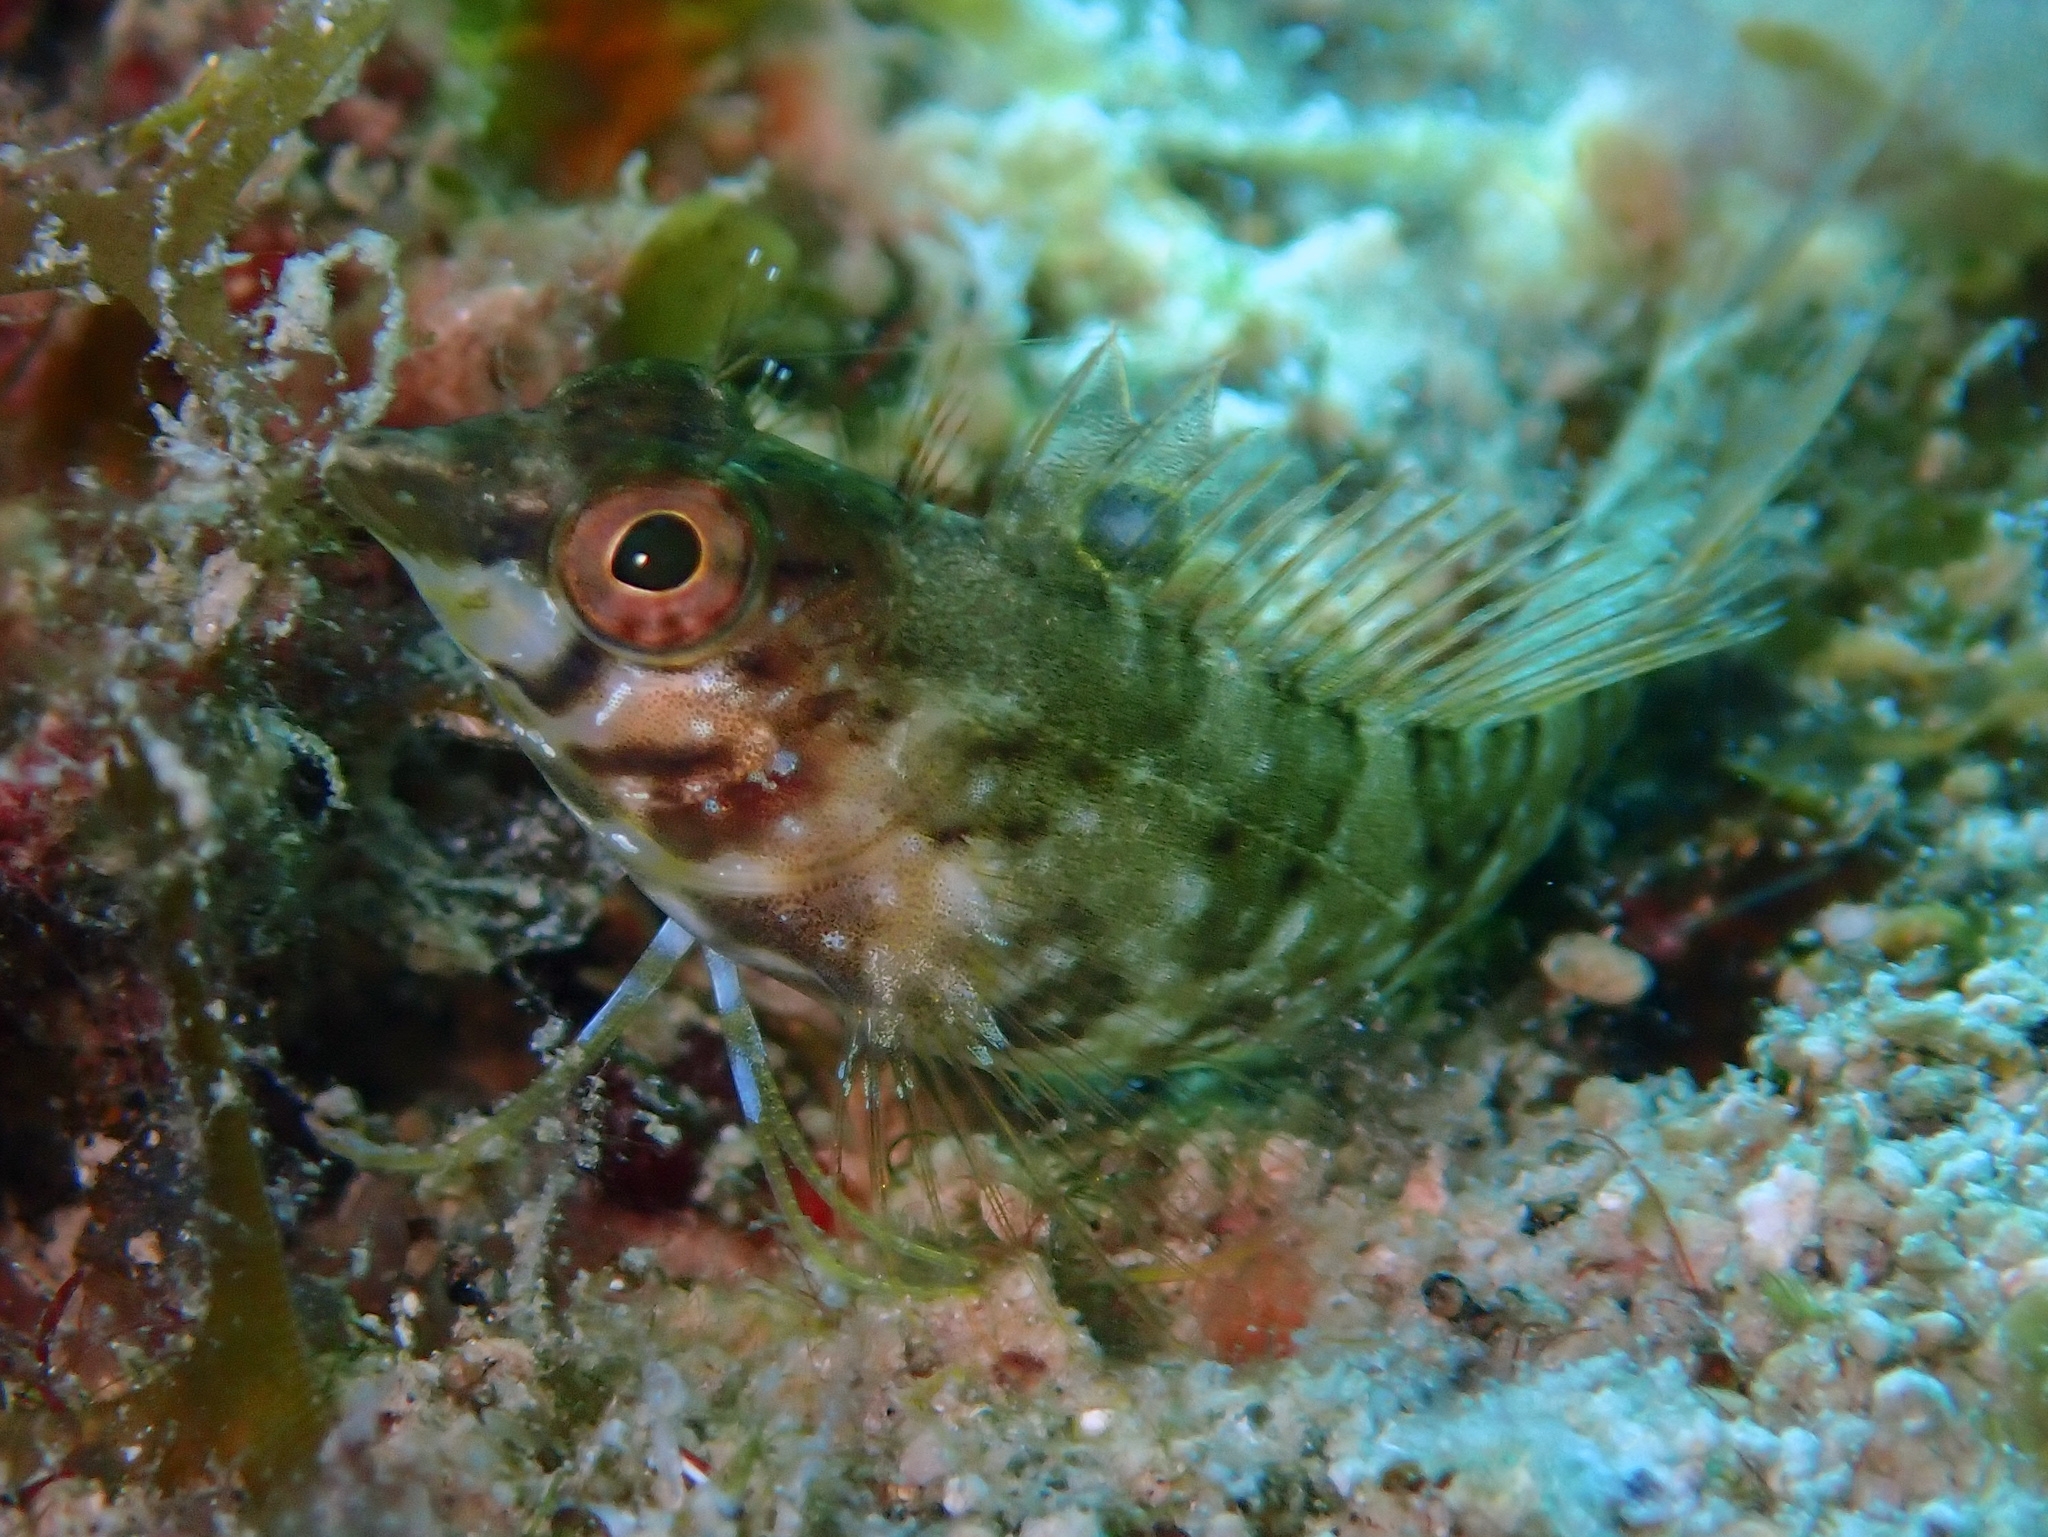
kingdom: Animalia
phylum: Chordata
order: Perciformes
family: Labrisomidae
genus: Malacoctenus
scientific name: Malacoctenus boehlkei
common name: Diamond blenny
